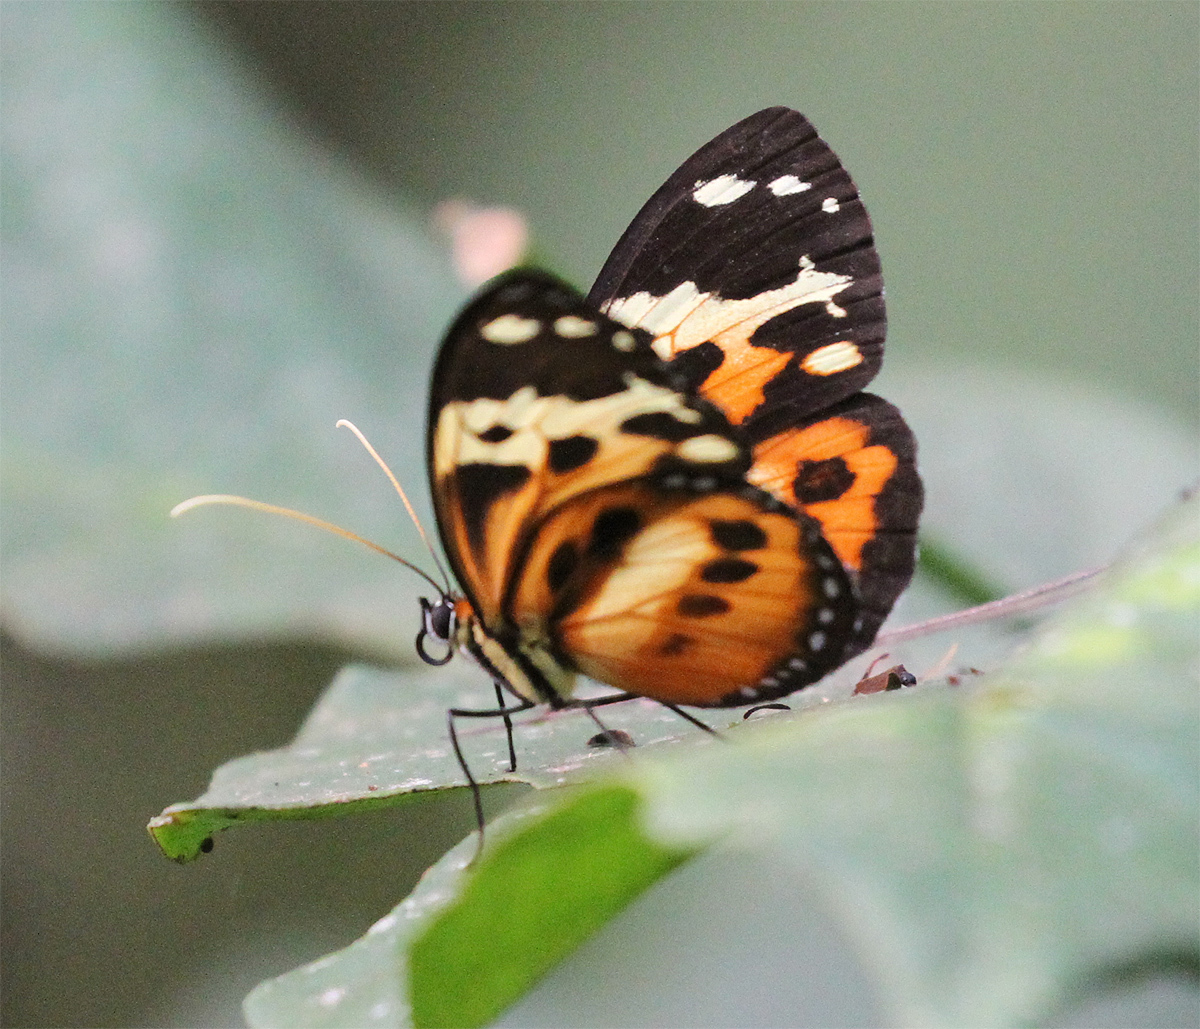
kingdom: Animalia
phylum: Arthropoda
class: Insecta
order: Lepidoptera
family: Nymphalidae
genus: Tithorea
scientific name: Tithorea harmonia
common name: Harmonia tigerwing
